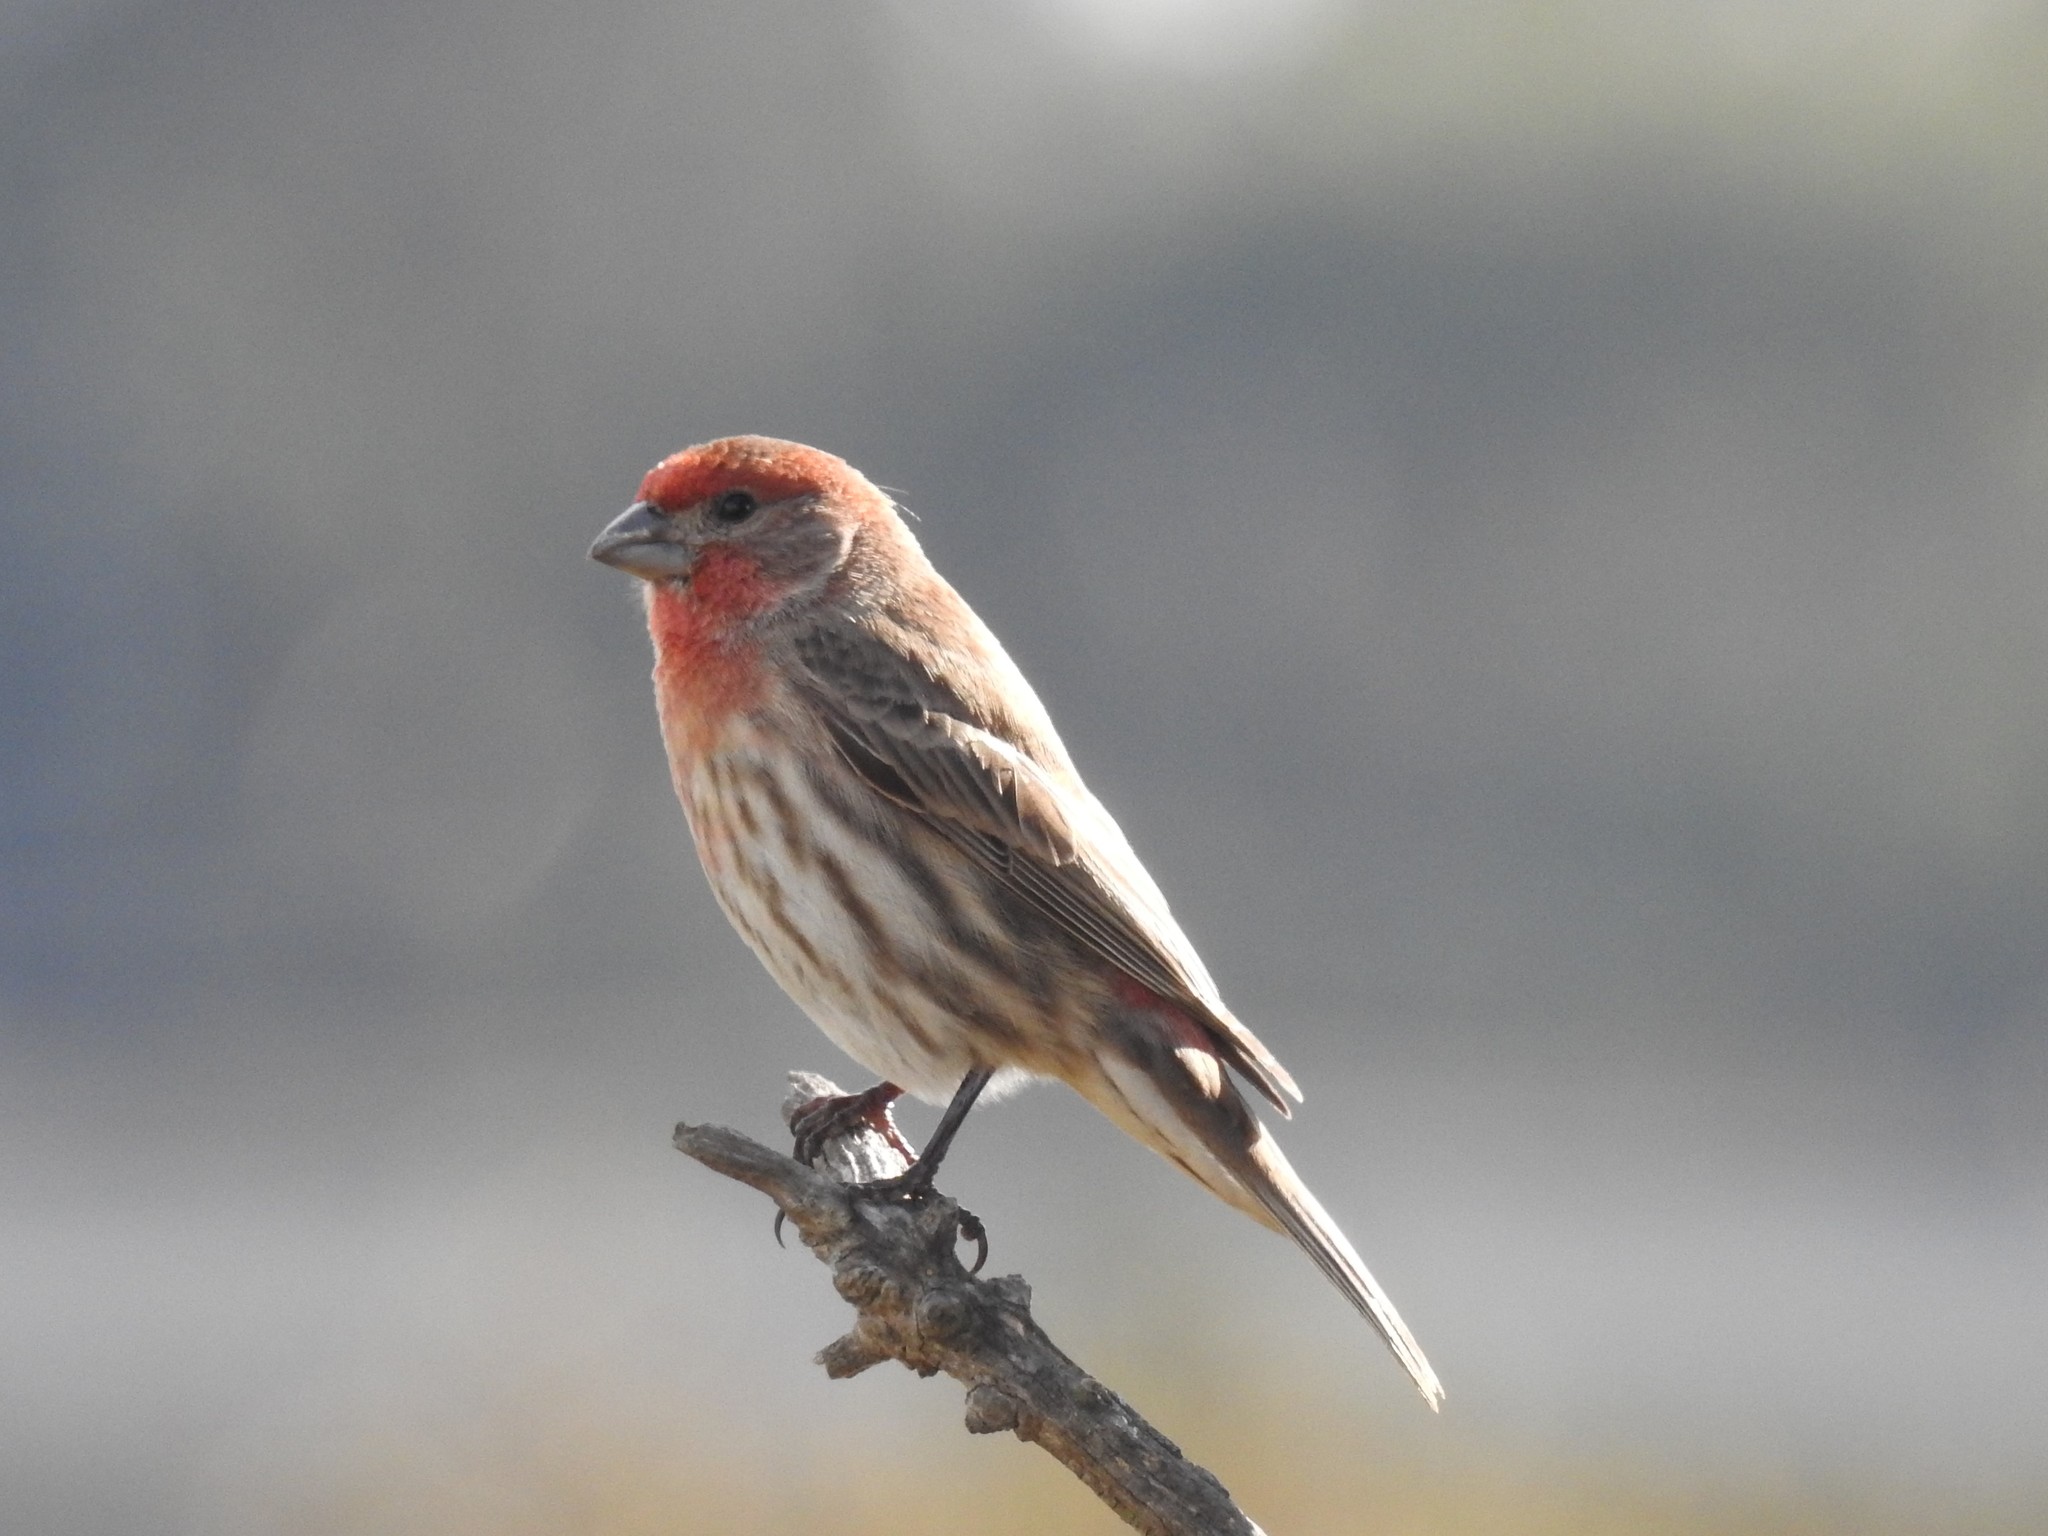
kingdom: Animalia
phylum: Chordata
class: Aves
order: Passeriformes
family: Fringillidae
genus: Haemorhous
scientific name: Haemorhous mexicanus
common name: House finch
